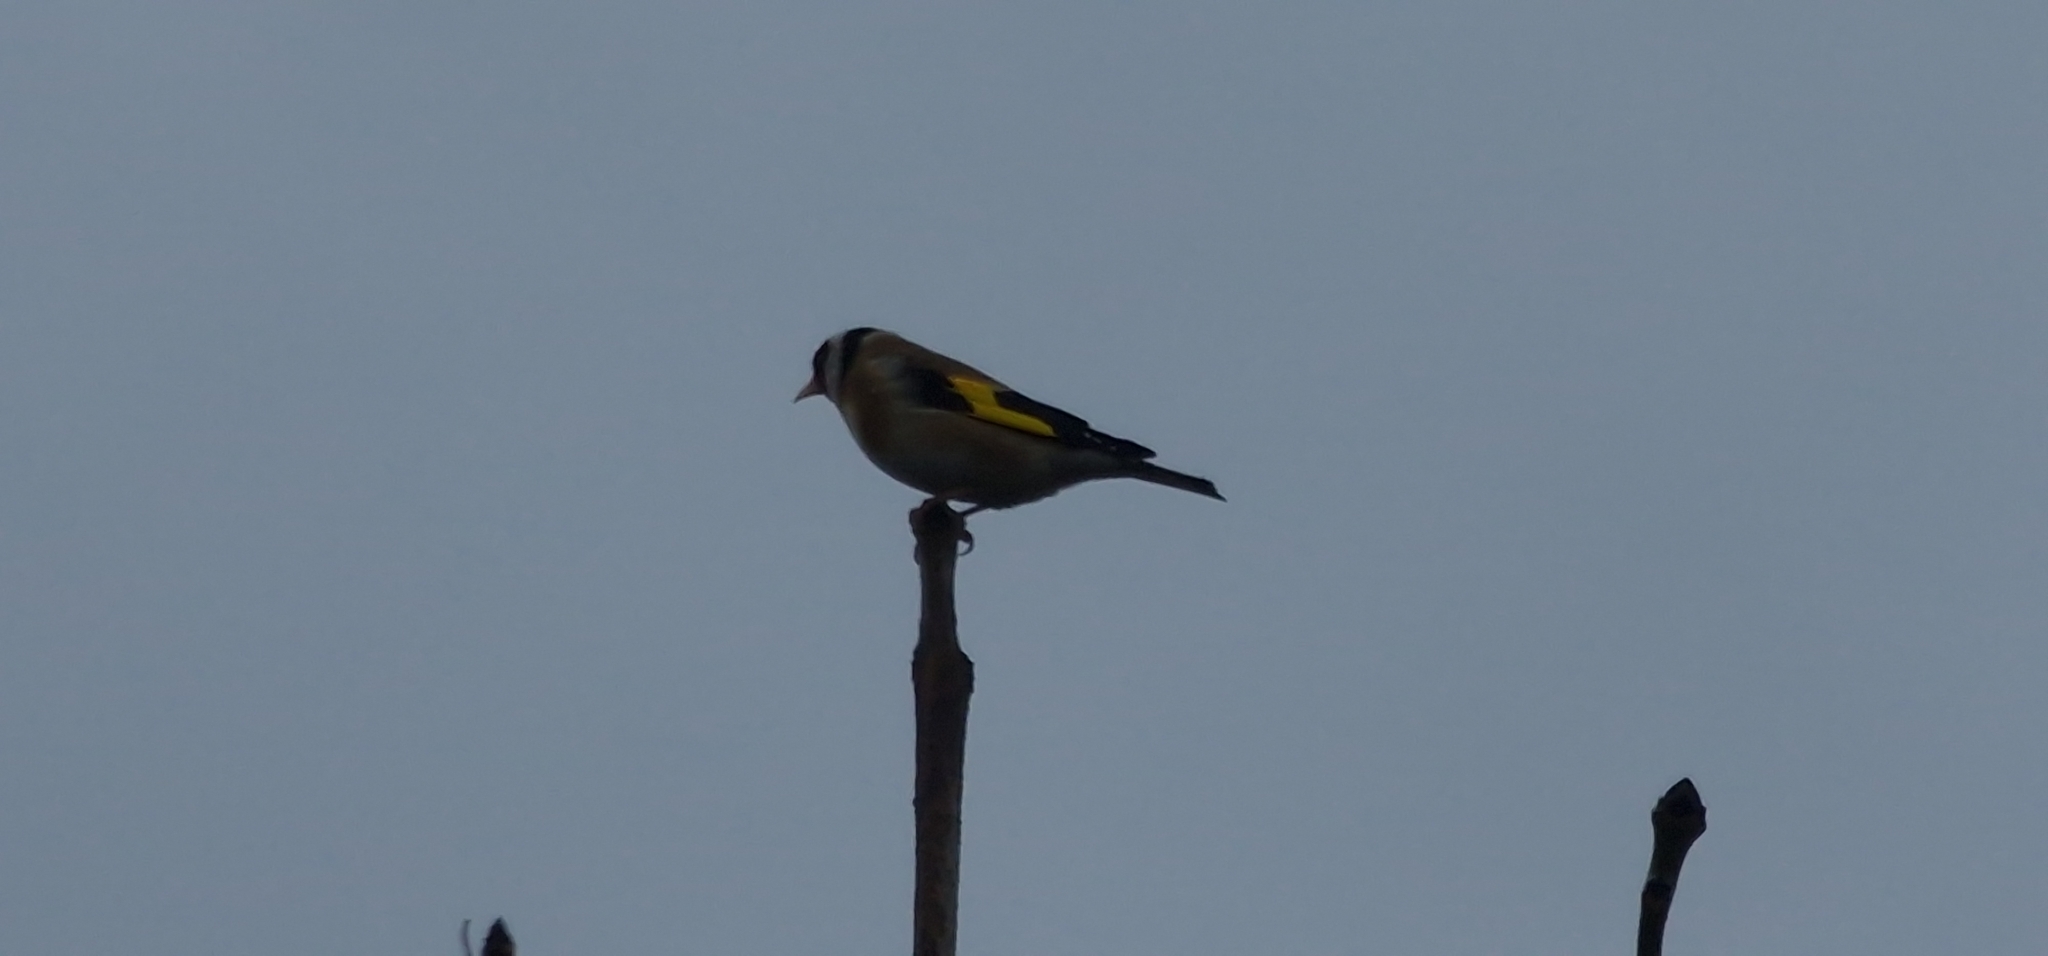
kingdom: Animalia
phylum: Chordata
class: Aves
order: Passeriformes
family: Fringillidae
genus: Carduelis
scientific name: Carduelis carduelis
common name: European goldfinch
